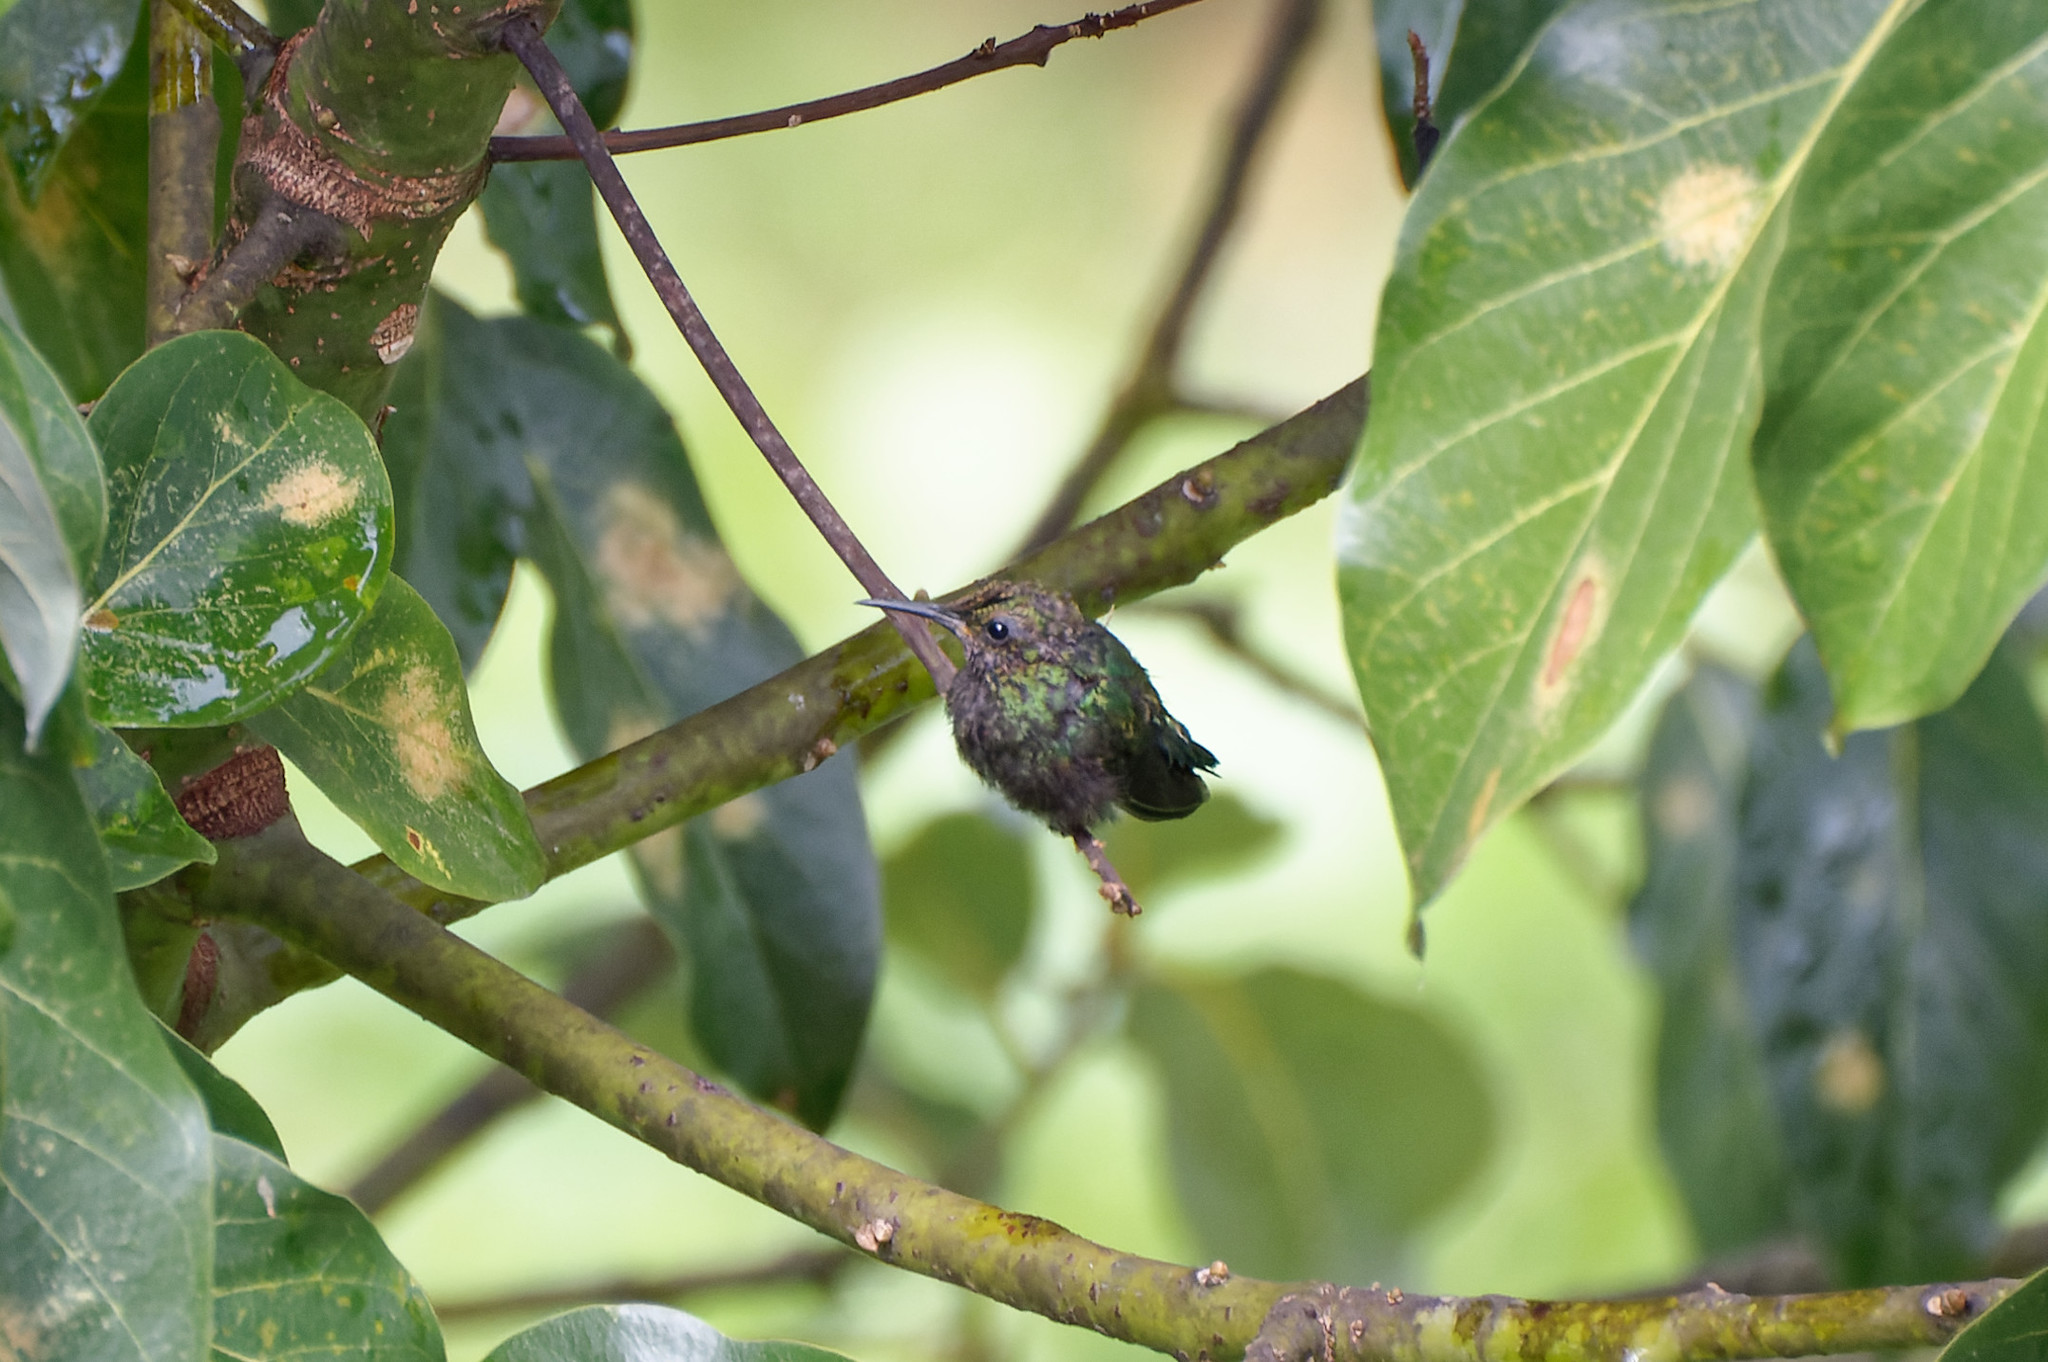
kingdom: Animalia
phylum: Chordata
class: Aves
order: Apodiformes
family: Trochilidae
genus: Eulampis
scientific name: Eulampis holosericeus
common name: Green-throated carib
